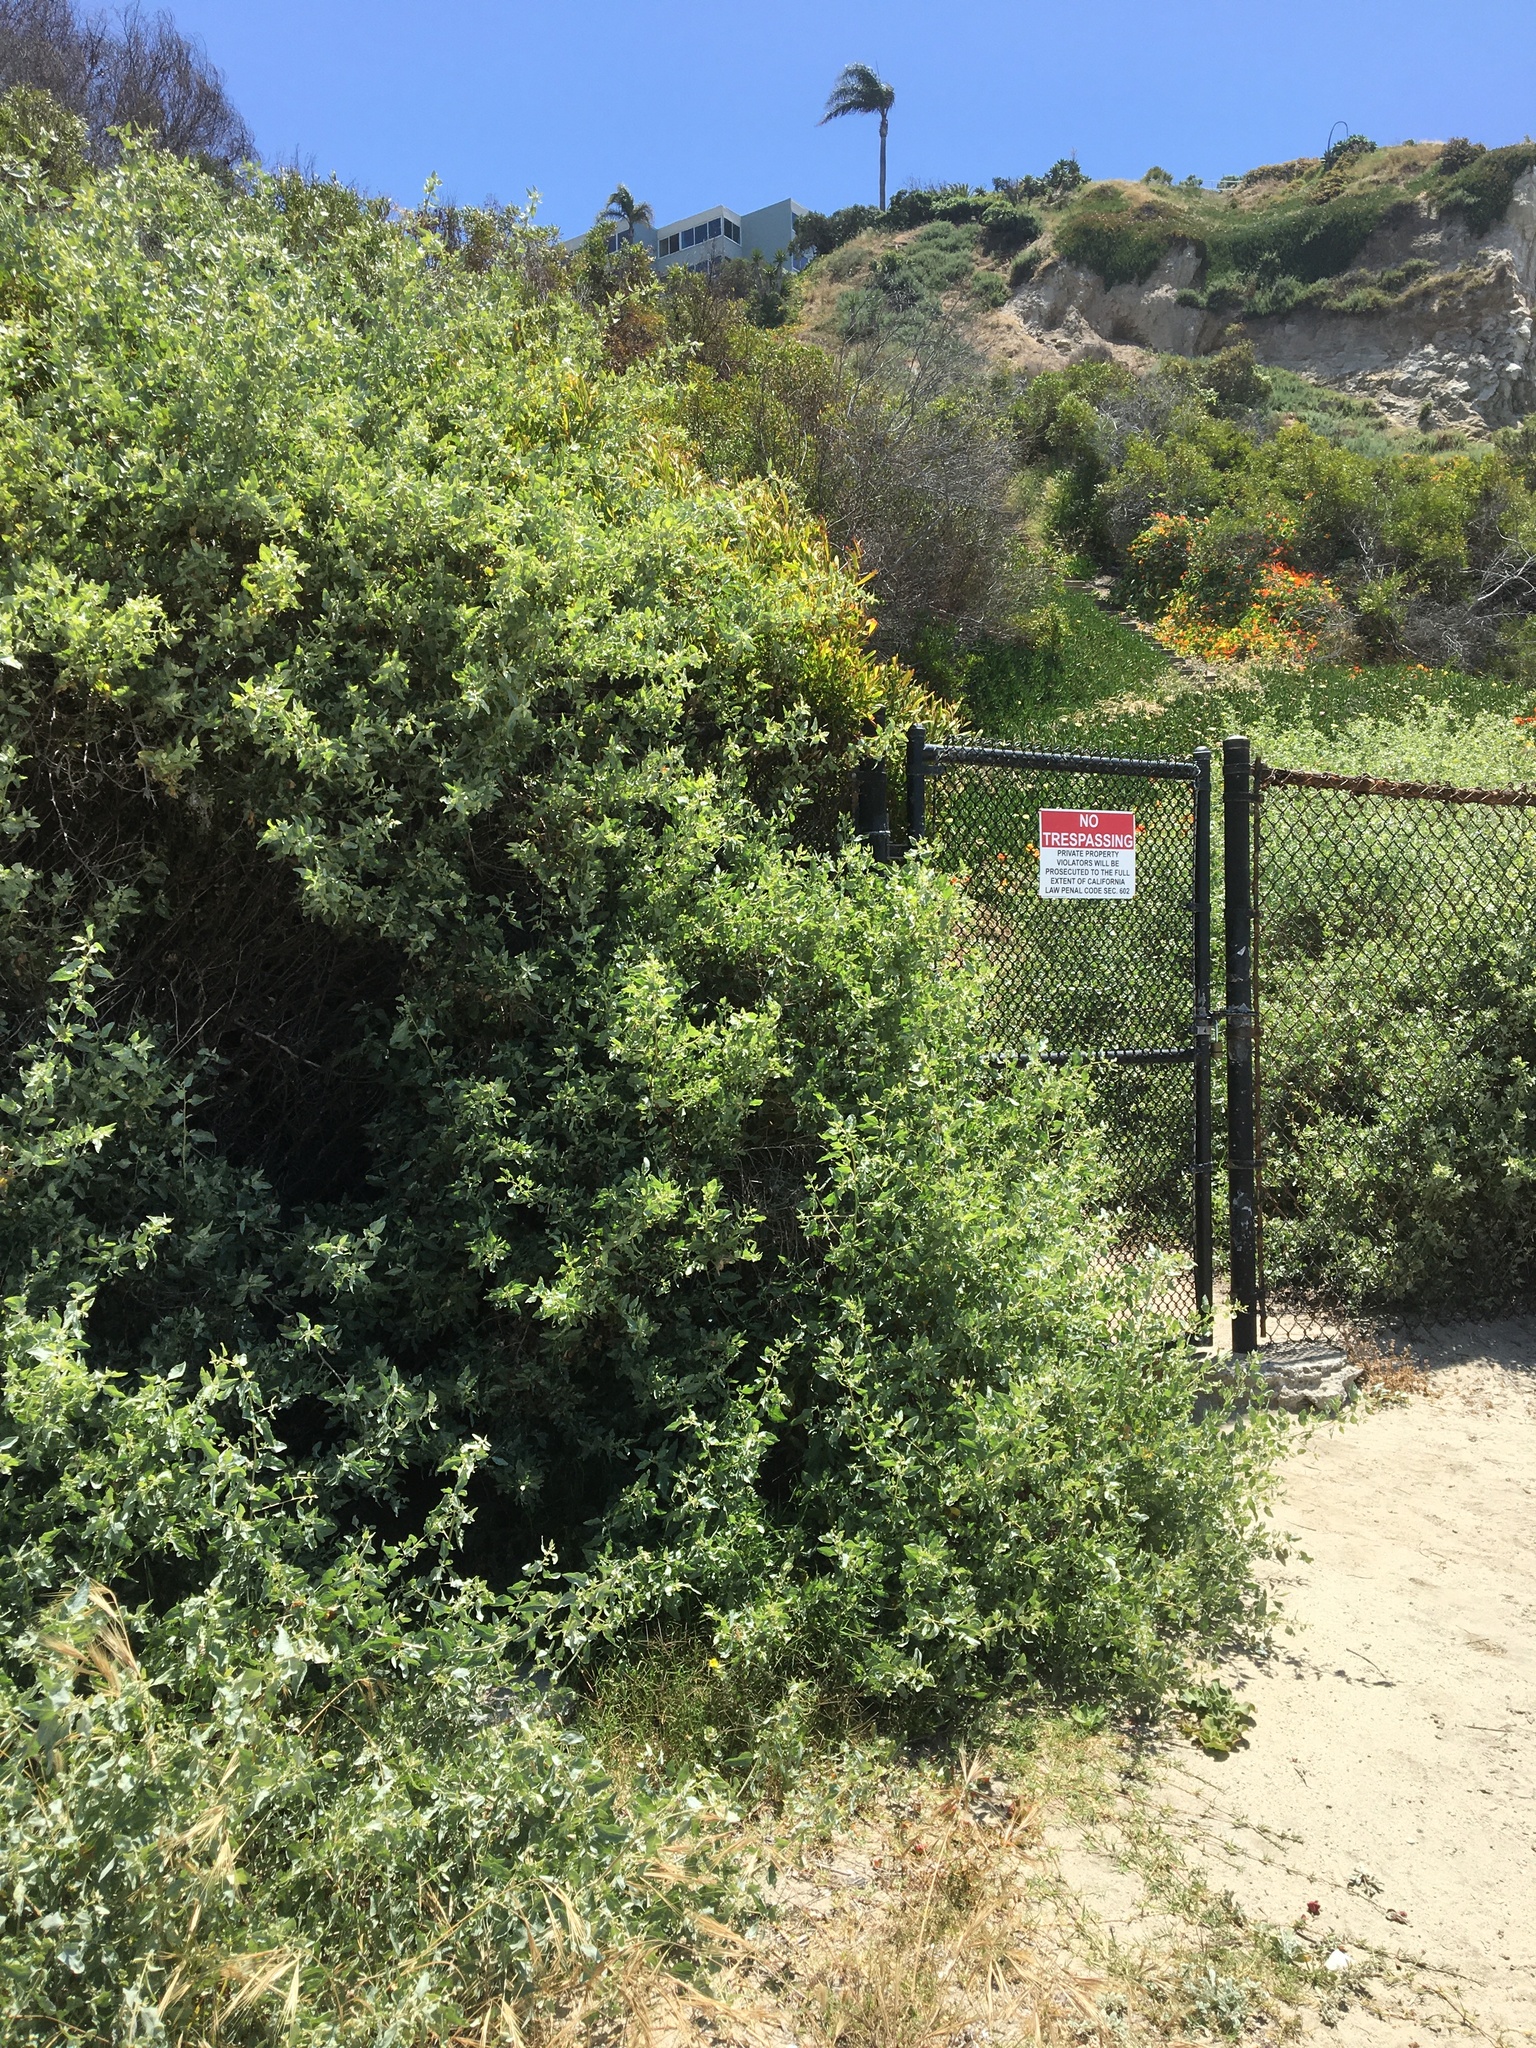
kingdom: Plantae
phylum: Tracheophyta
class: Magnoliopsida
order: Caryophyllales
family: Amaranthaceae
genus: Atriplex
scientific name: Atriplex lentiformis
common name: Big saltbush
